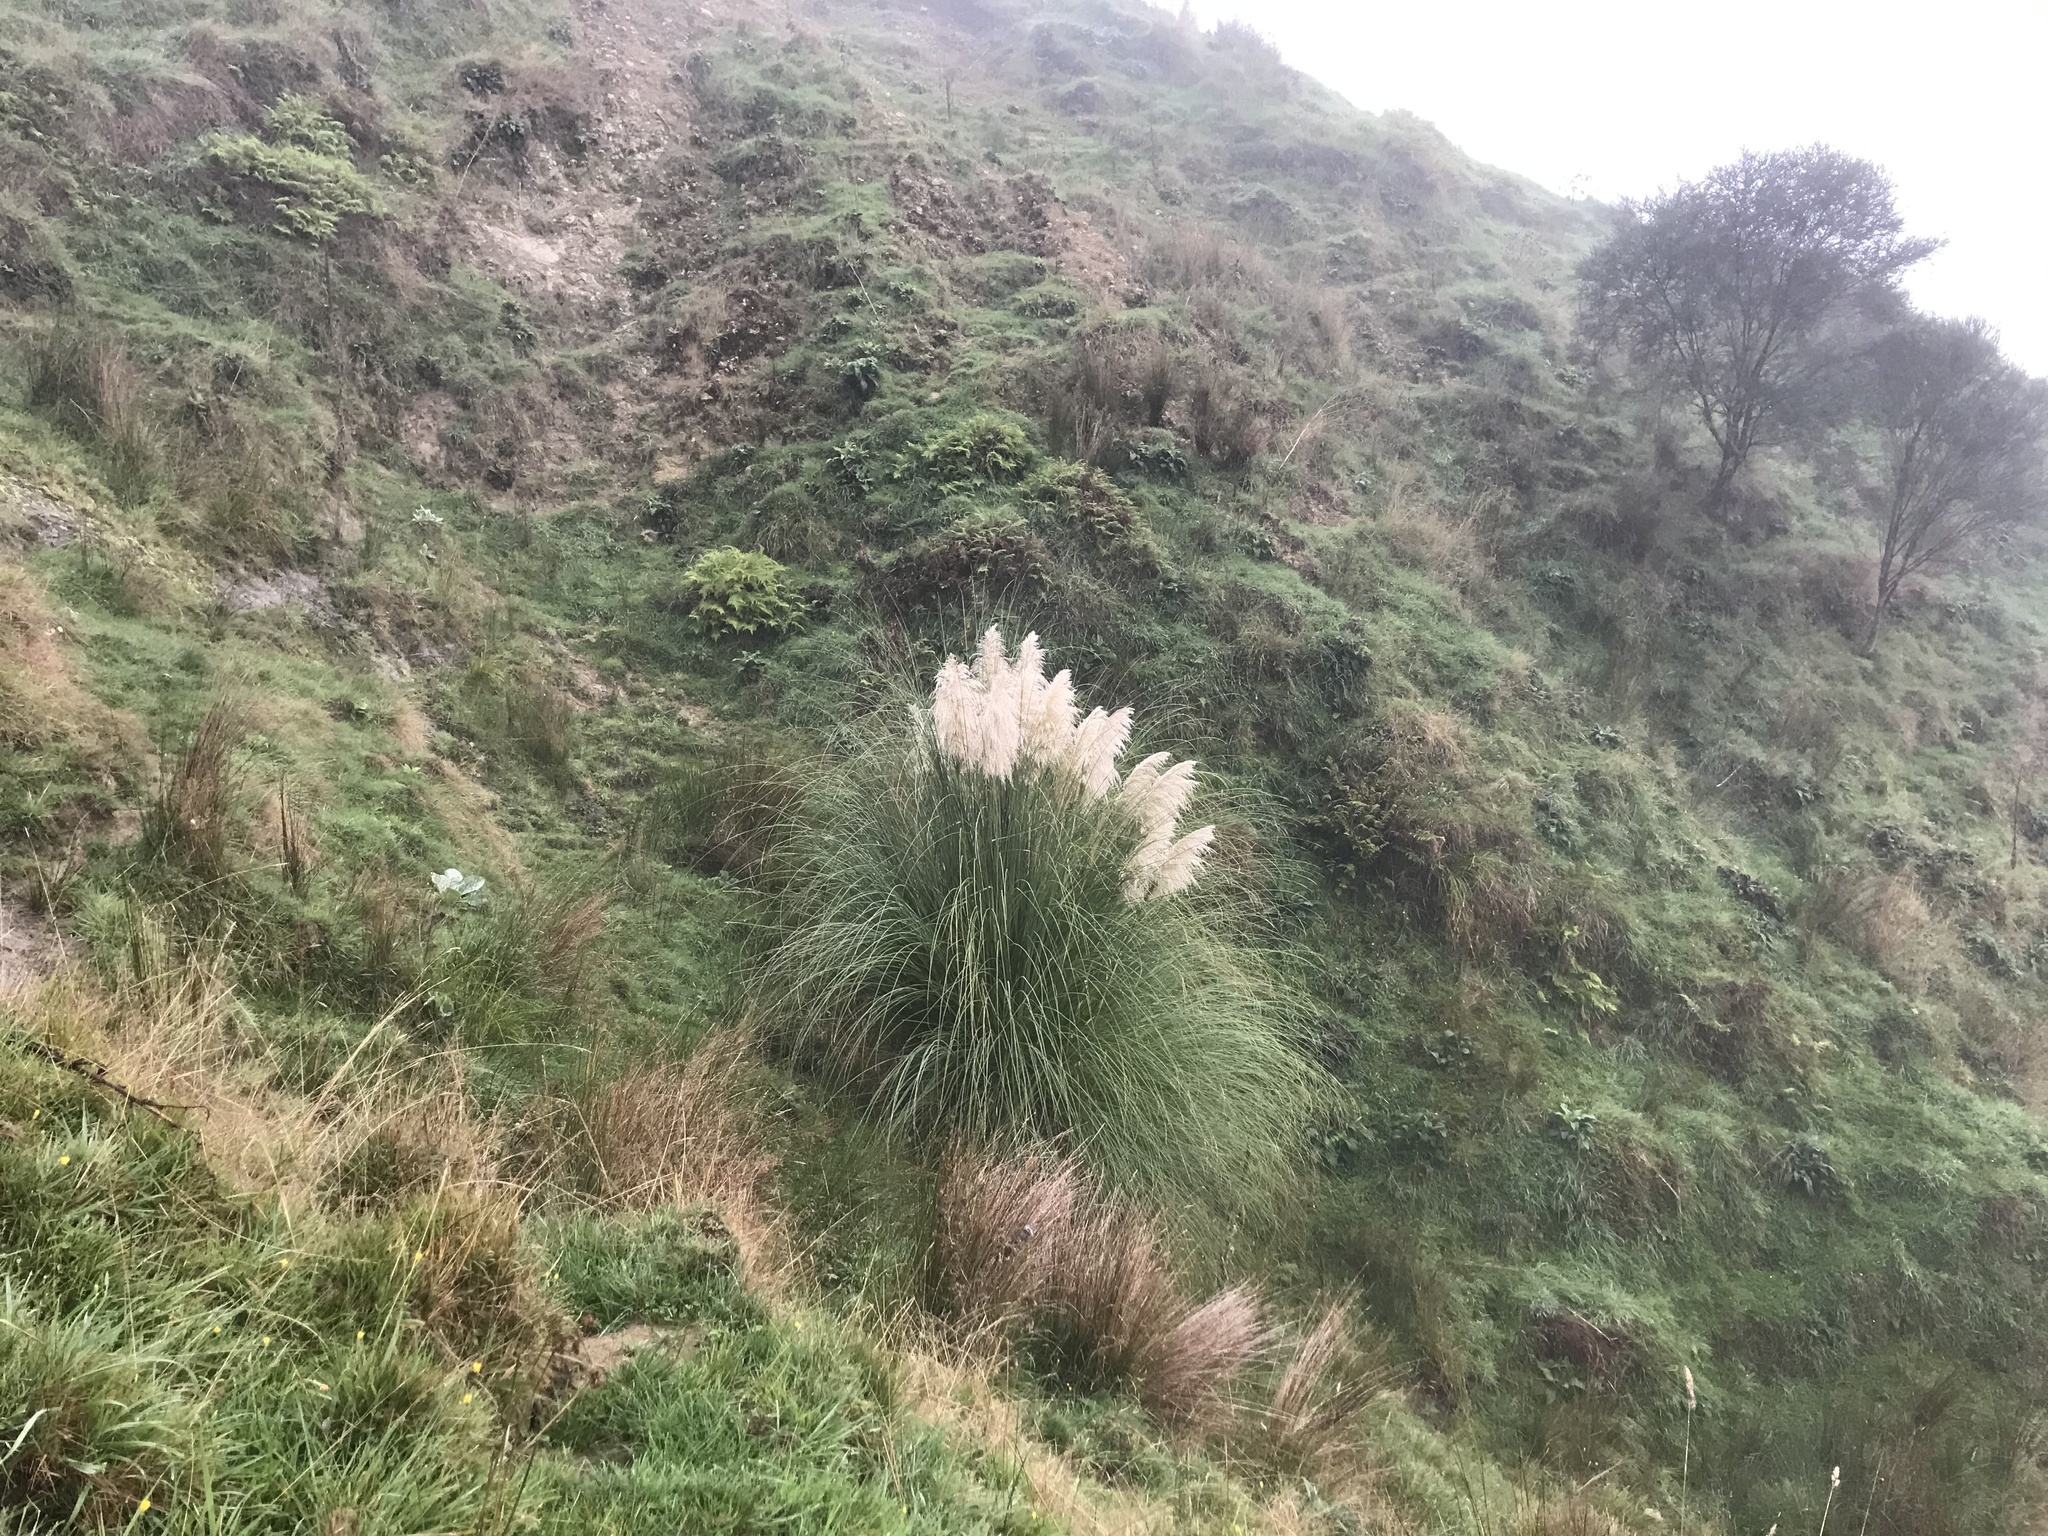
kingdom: Plantae
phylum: Tracheophyta
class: Liliopsida
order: Poales
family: Poaceae
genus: Cortaderia
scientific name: Cortaderia selloana
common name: Uruguayan pampas grass
